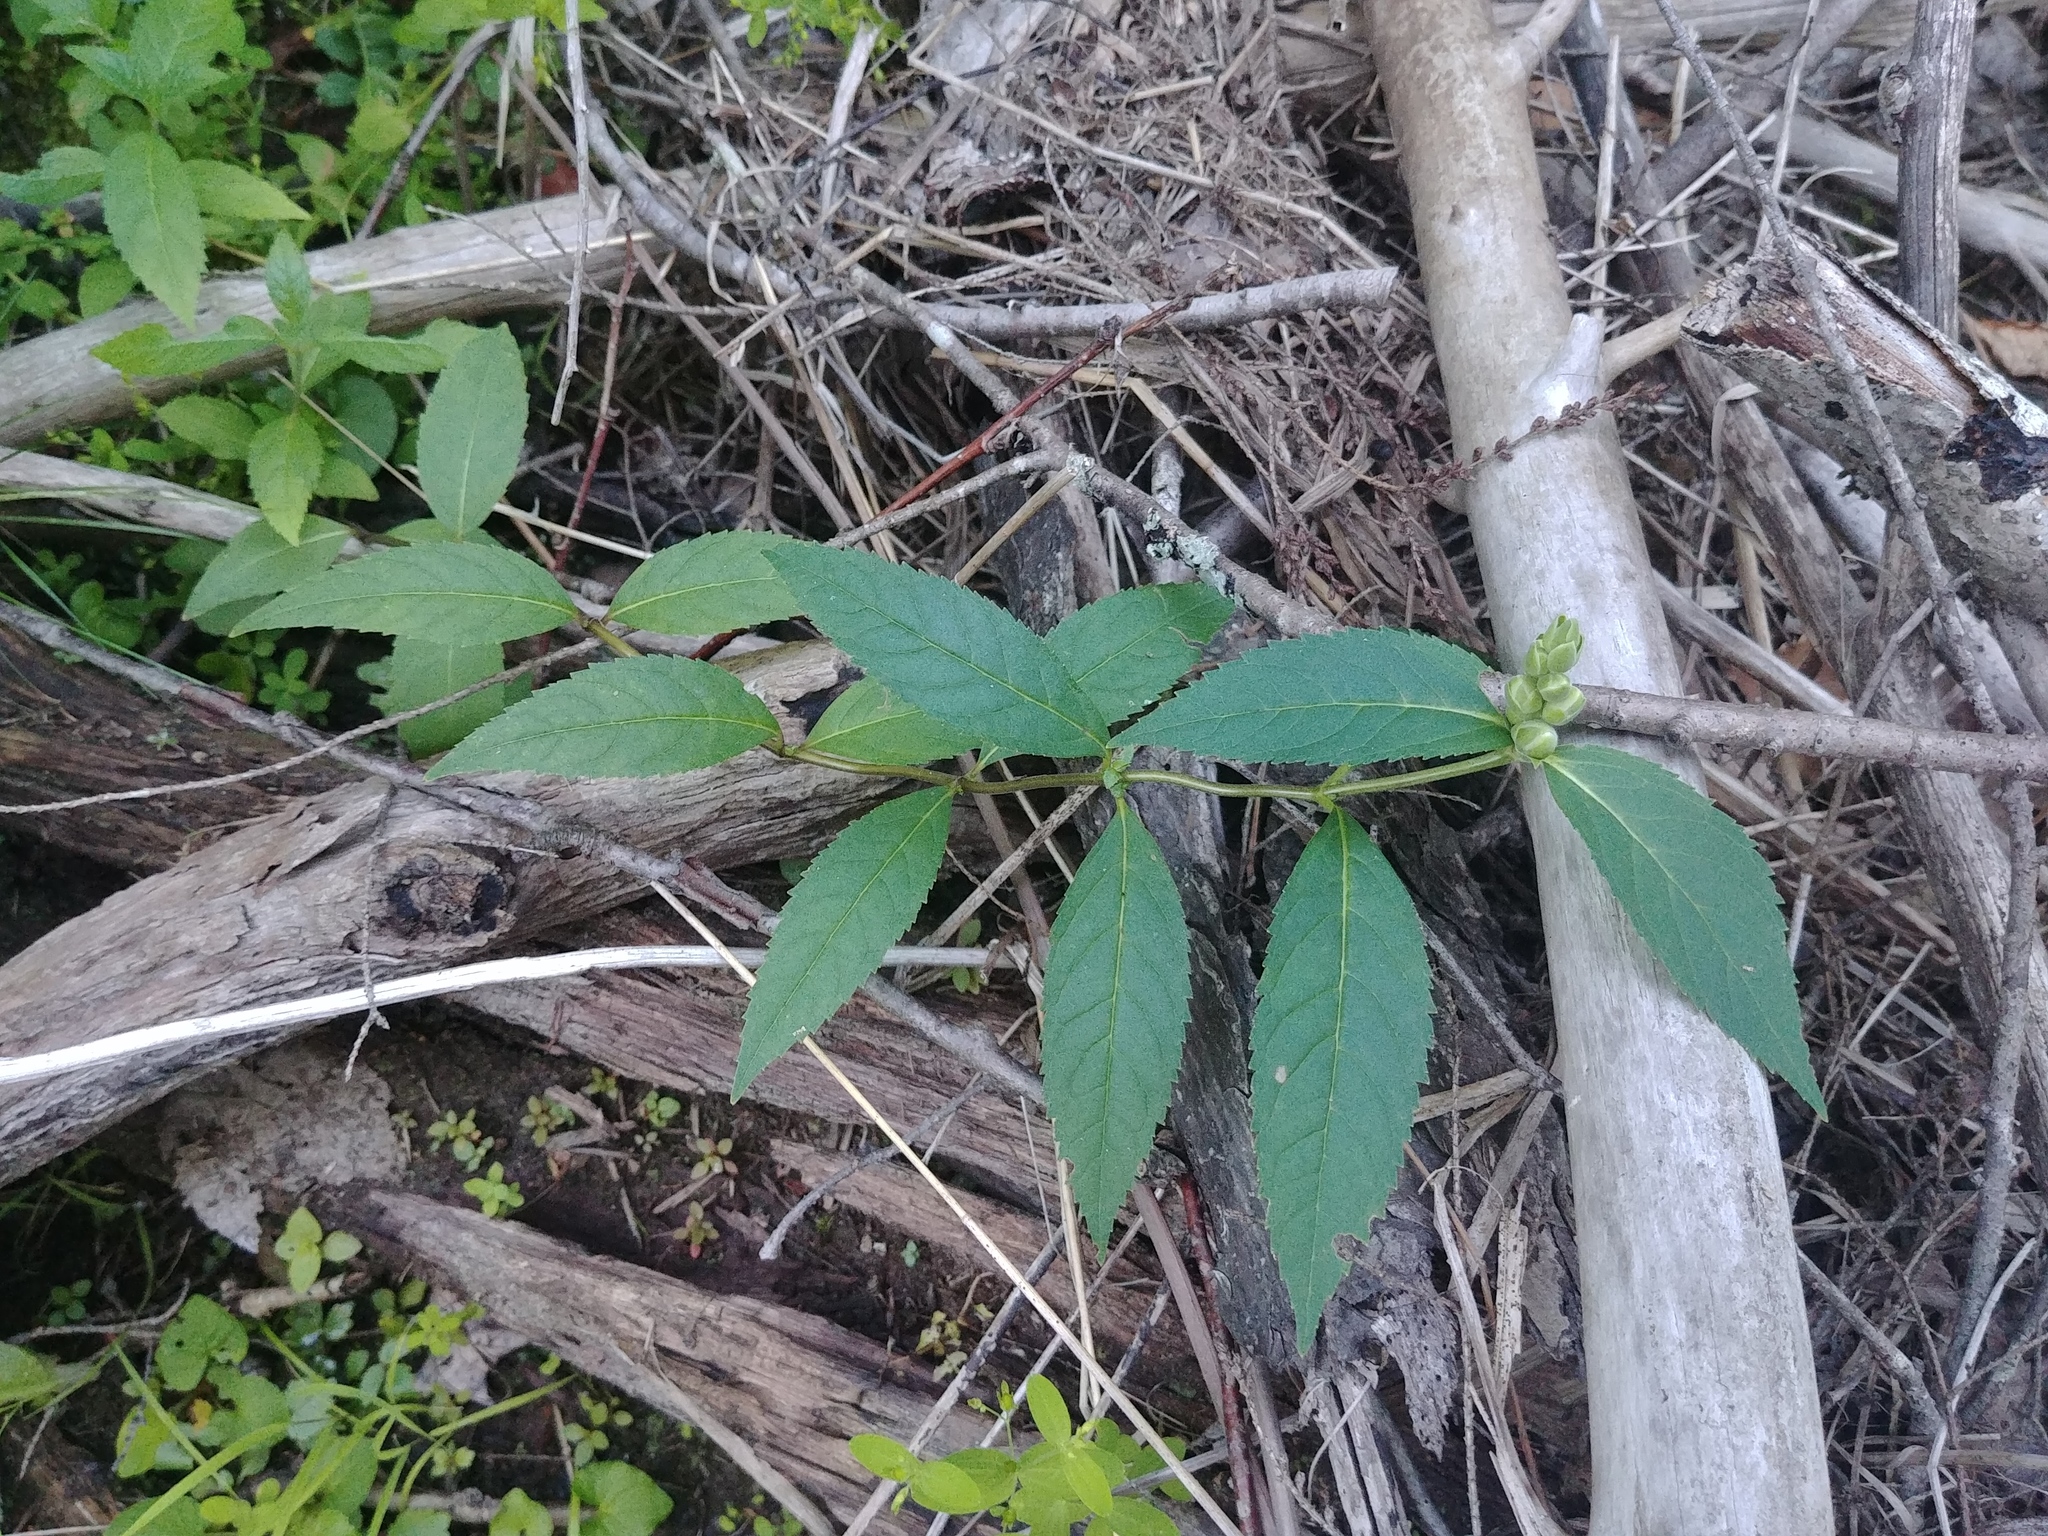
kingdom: Plantae
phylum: Tracheophyta
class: Magnoliopsida
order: Lamiales
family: Plantaginaceae
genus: Chelone
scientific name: Chelone glabra
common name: Snakehead
